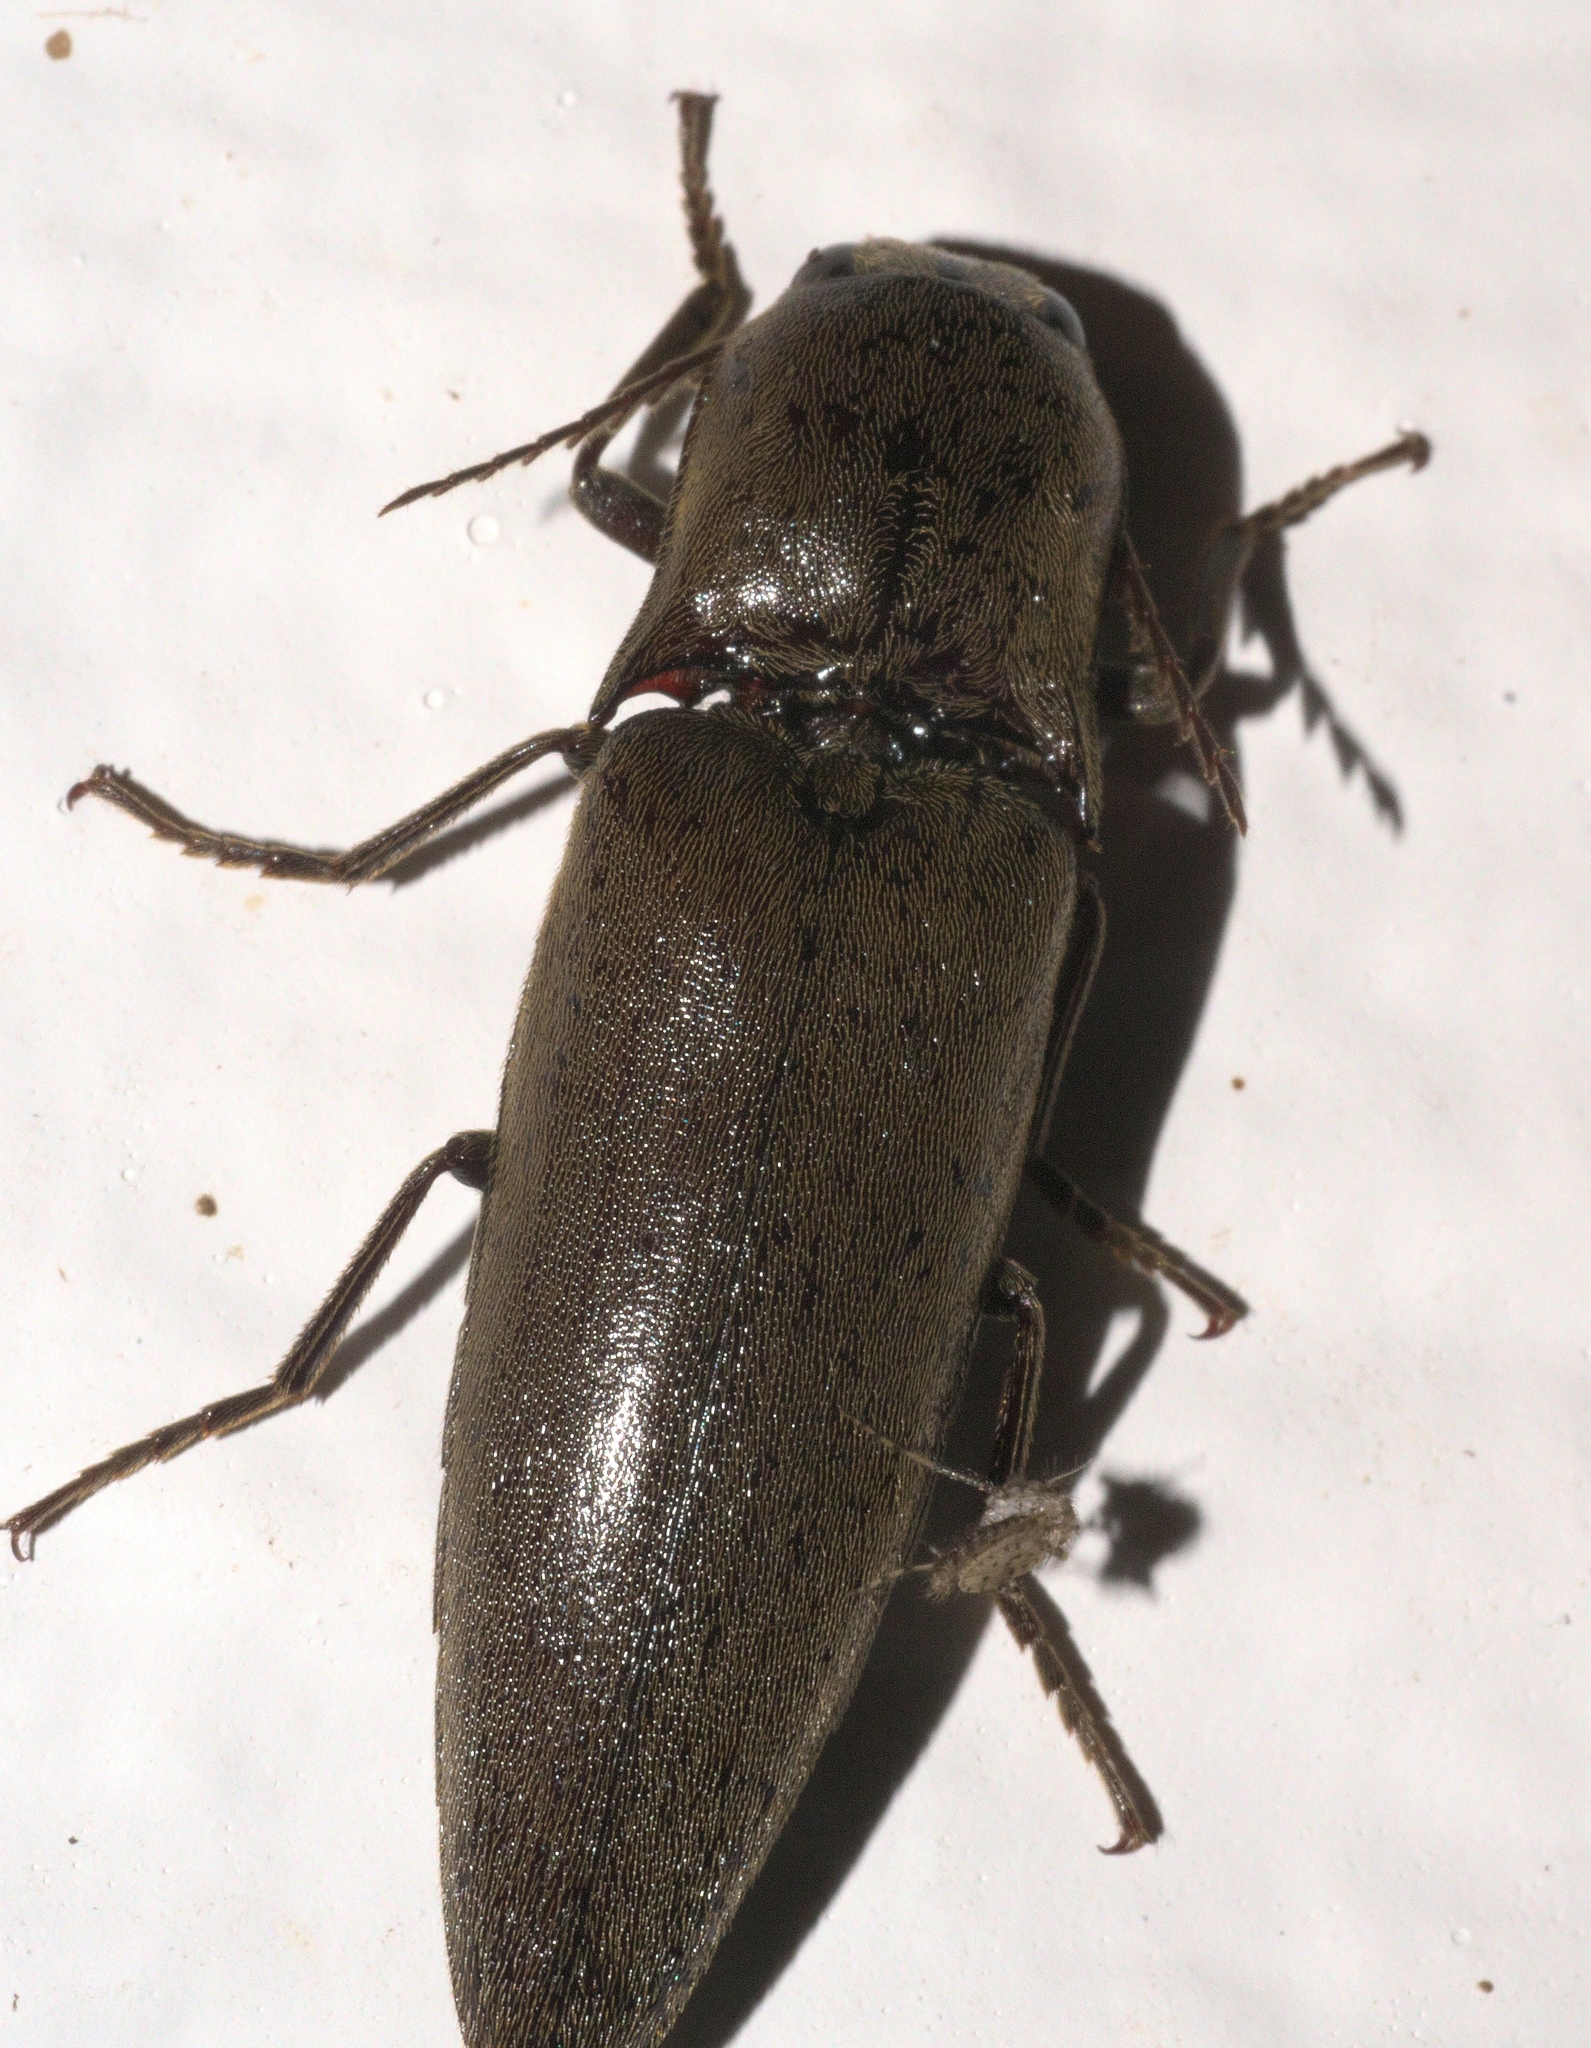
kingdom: Animalia
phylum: Arthropoda
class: Insecta
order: Coleoptera
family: Elateridae
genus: Orthostethus
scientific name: Orthostethus infuscatus
